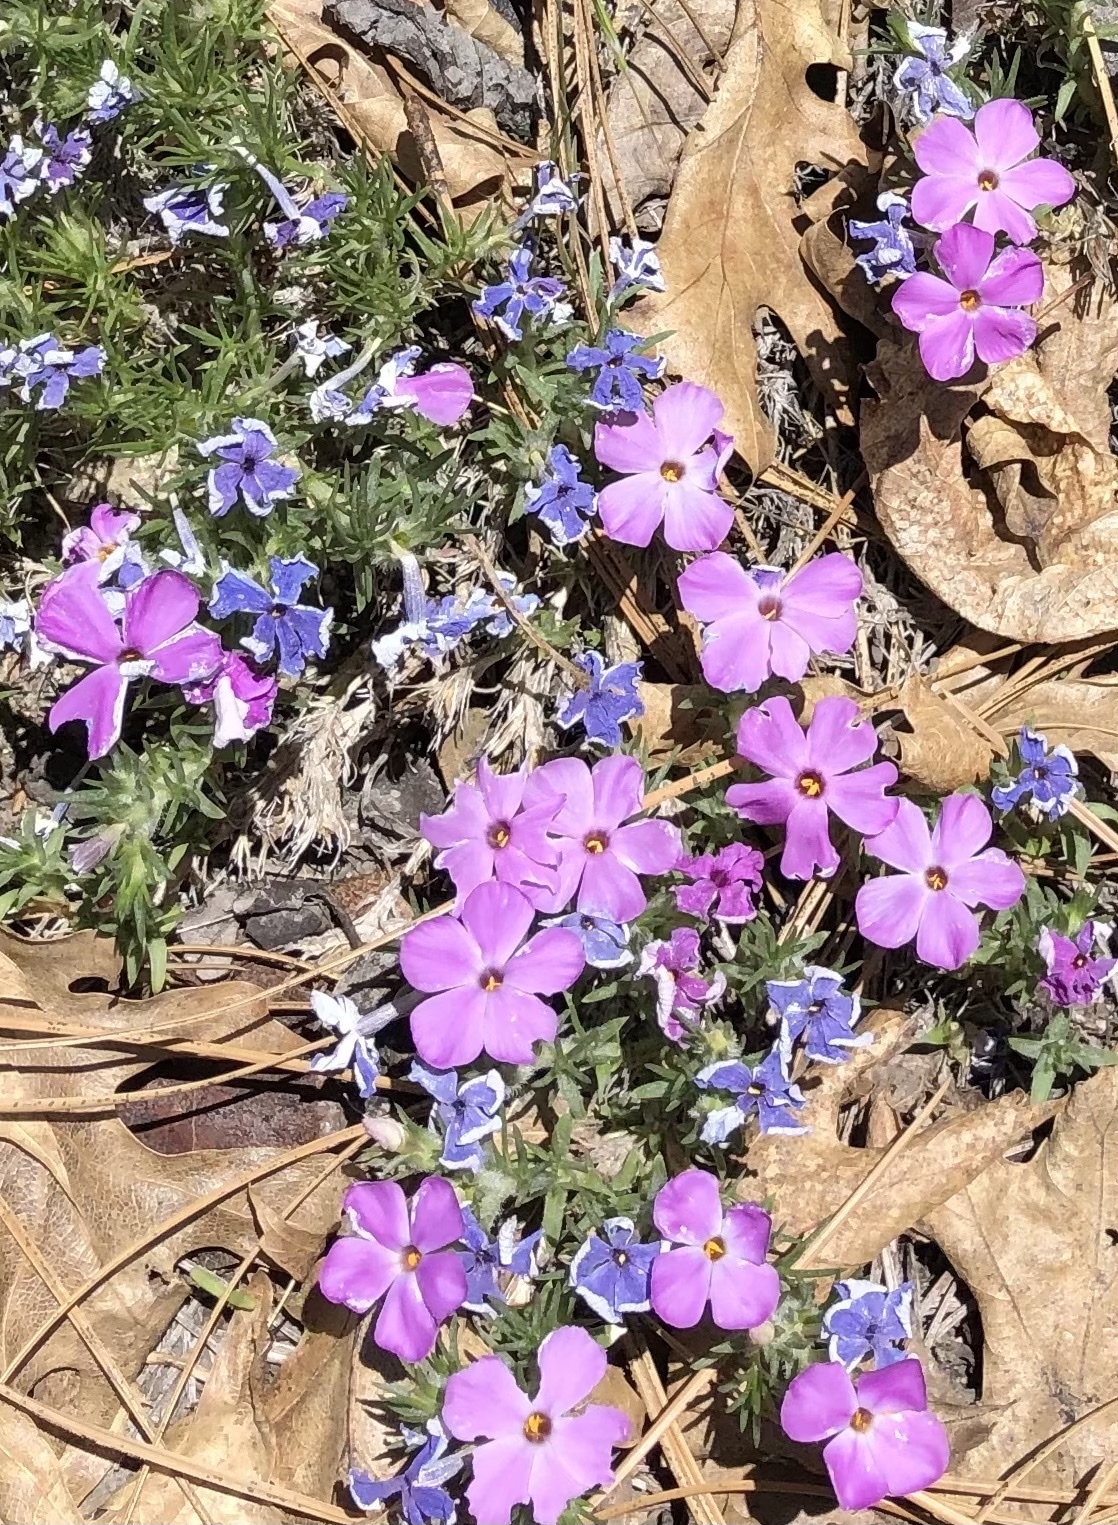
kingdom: Plantae
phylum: Tracheophyta
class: Magnoliopsida
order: Ericales
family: Polemoniaceae
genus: Phlox
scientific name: Phlox diffusa
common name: Mat phlox
